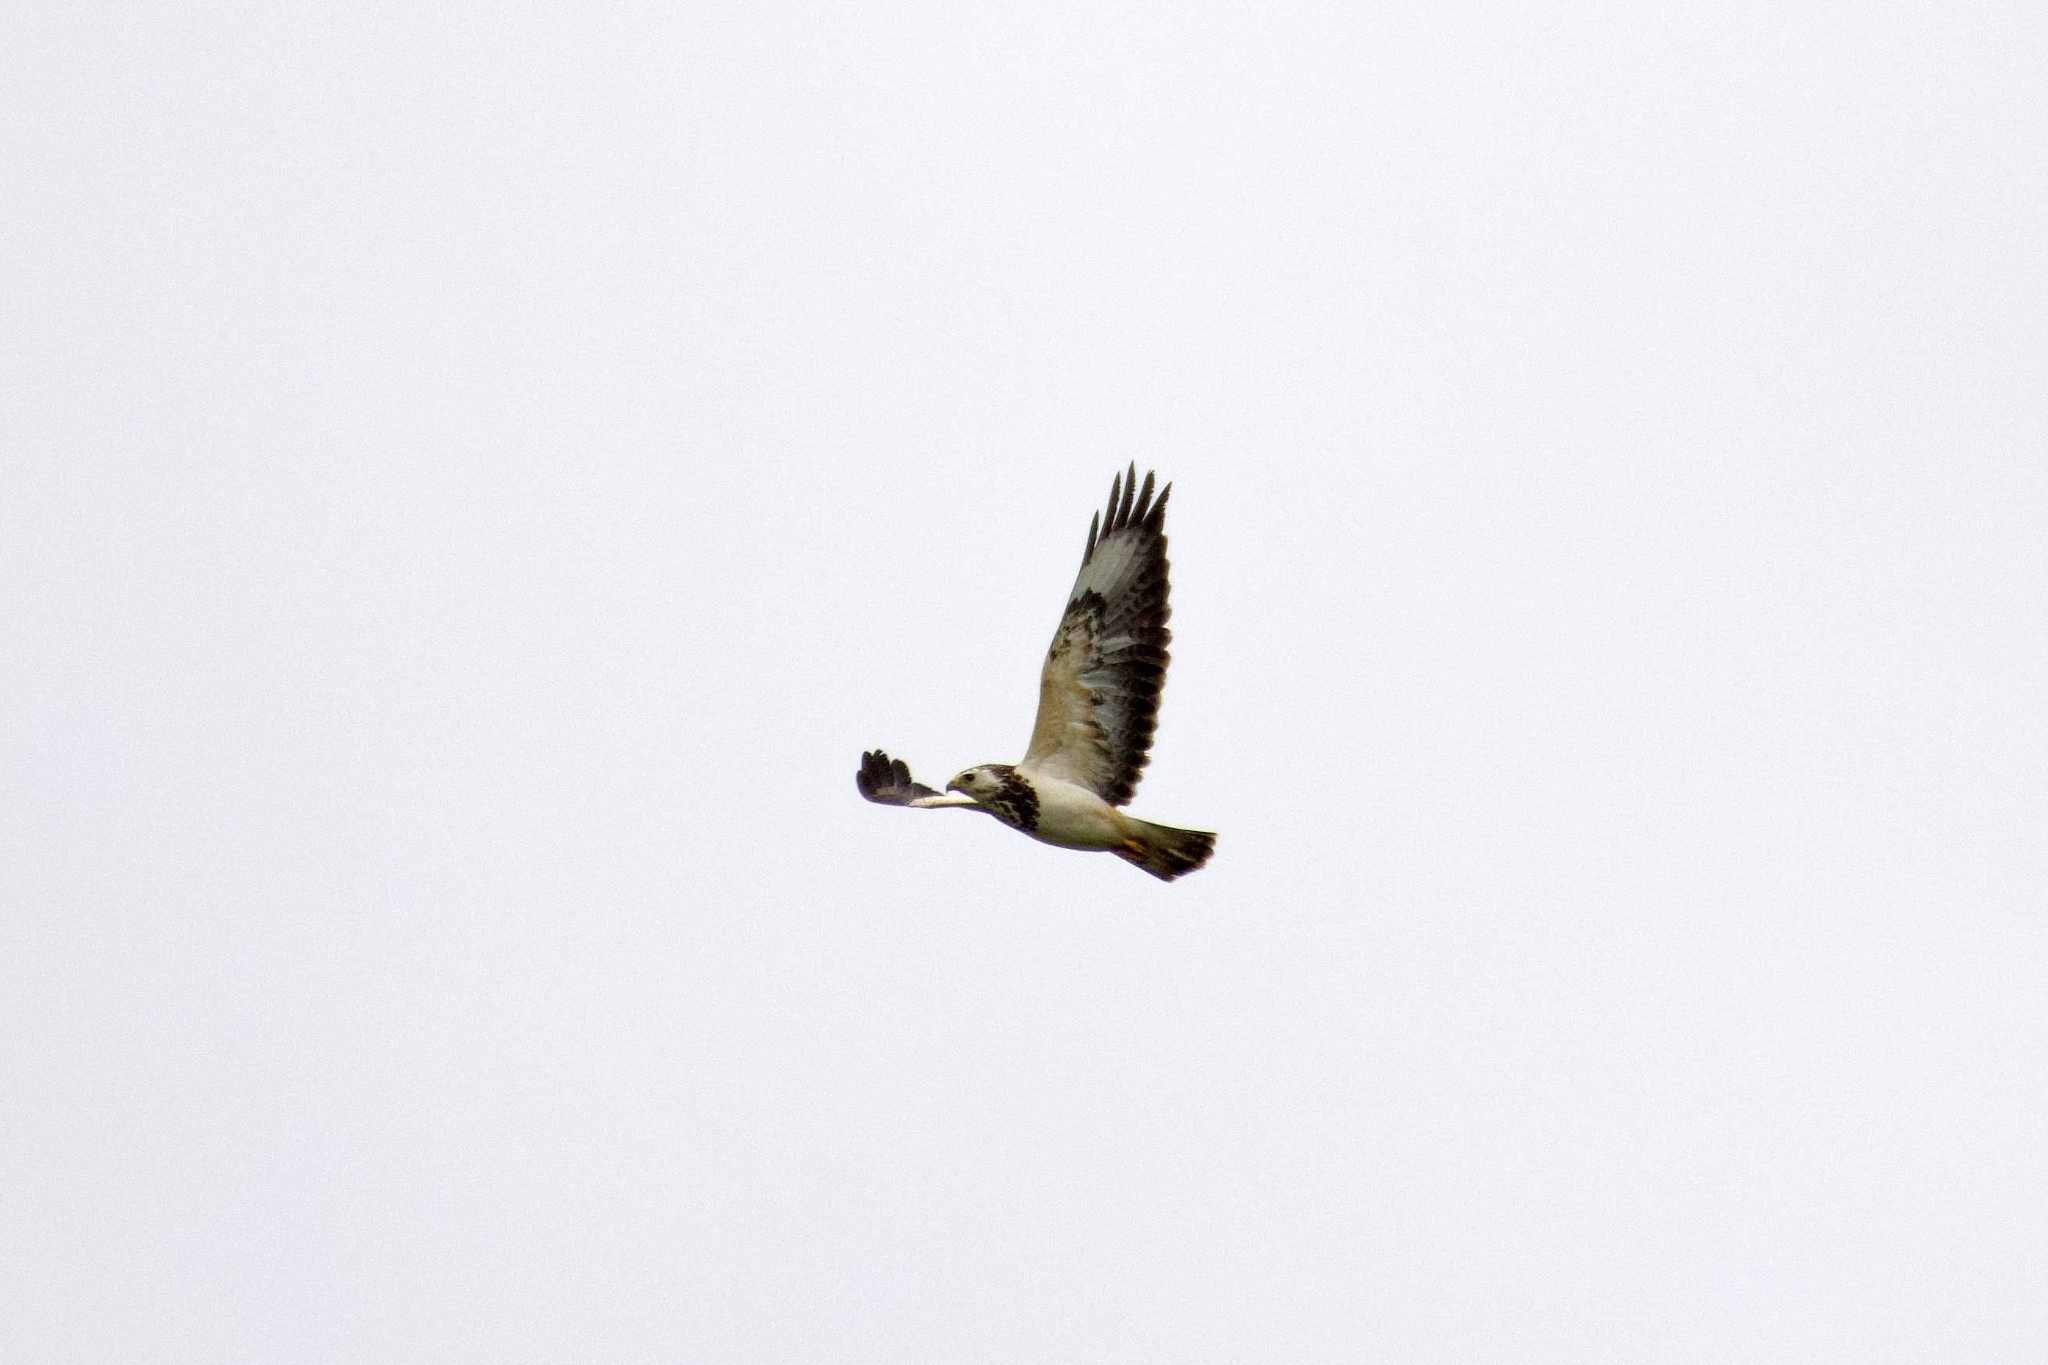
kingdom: Animalia
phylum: Chordata
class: Aves
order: Accipitriformes
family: Accipitridae
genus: Buteo
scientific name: Buteo buteo
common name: Common buzzard
